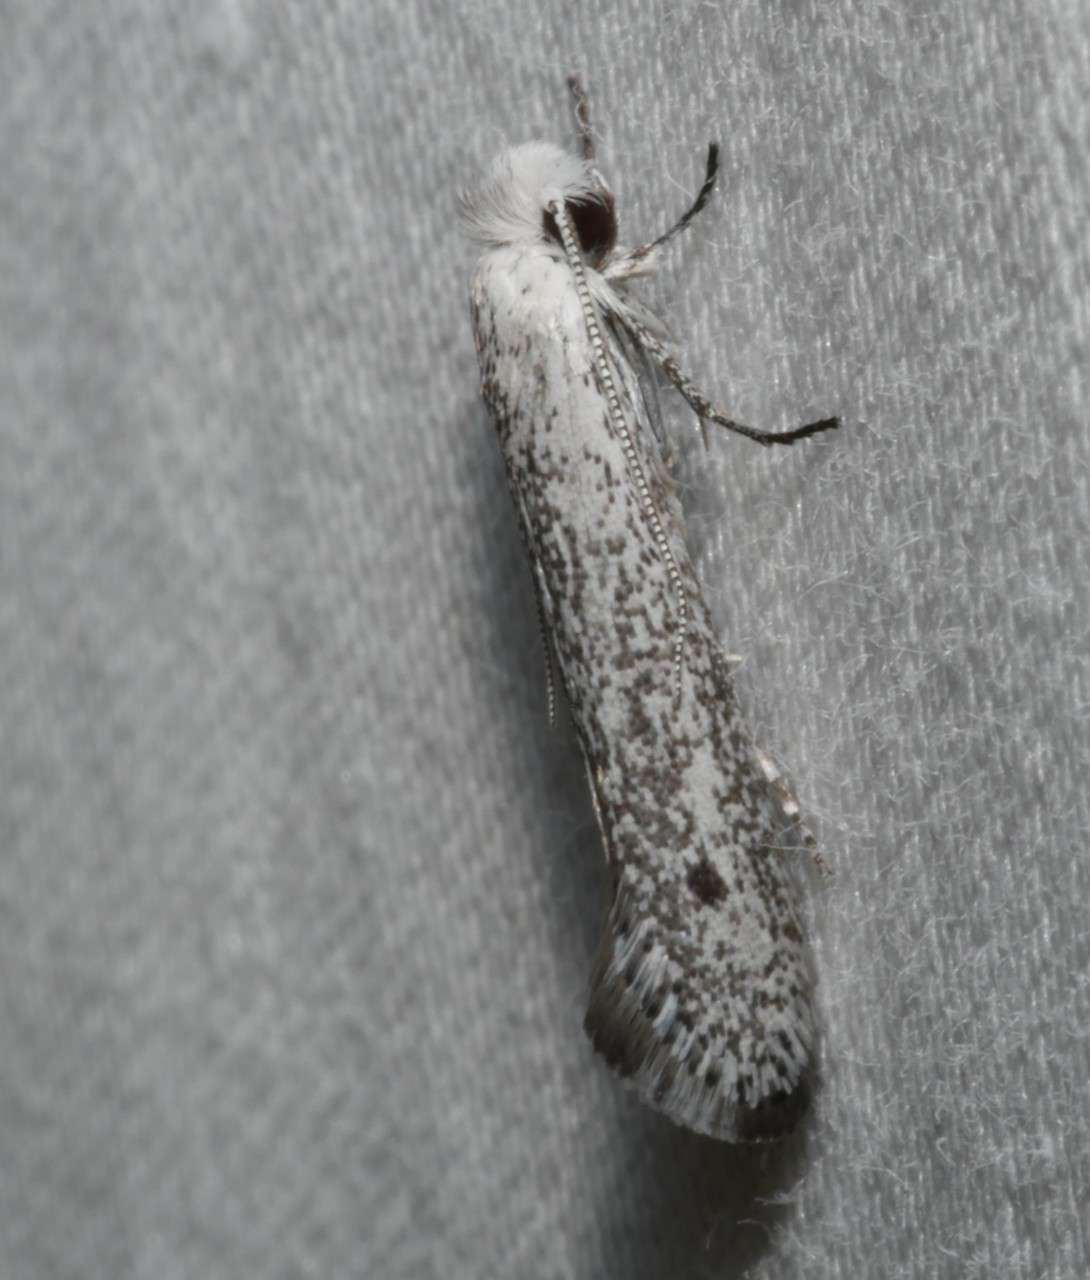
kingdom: Animalia
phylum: Arthropoda
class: Insecta
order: Lepidoptera
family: Tineidae
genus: Metapherna
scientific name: Metapherna salsa
